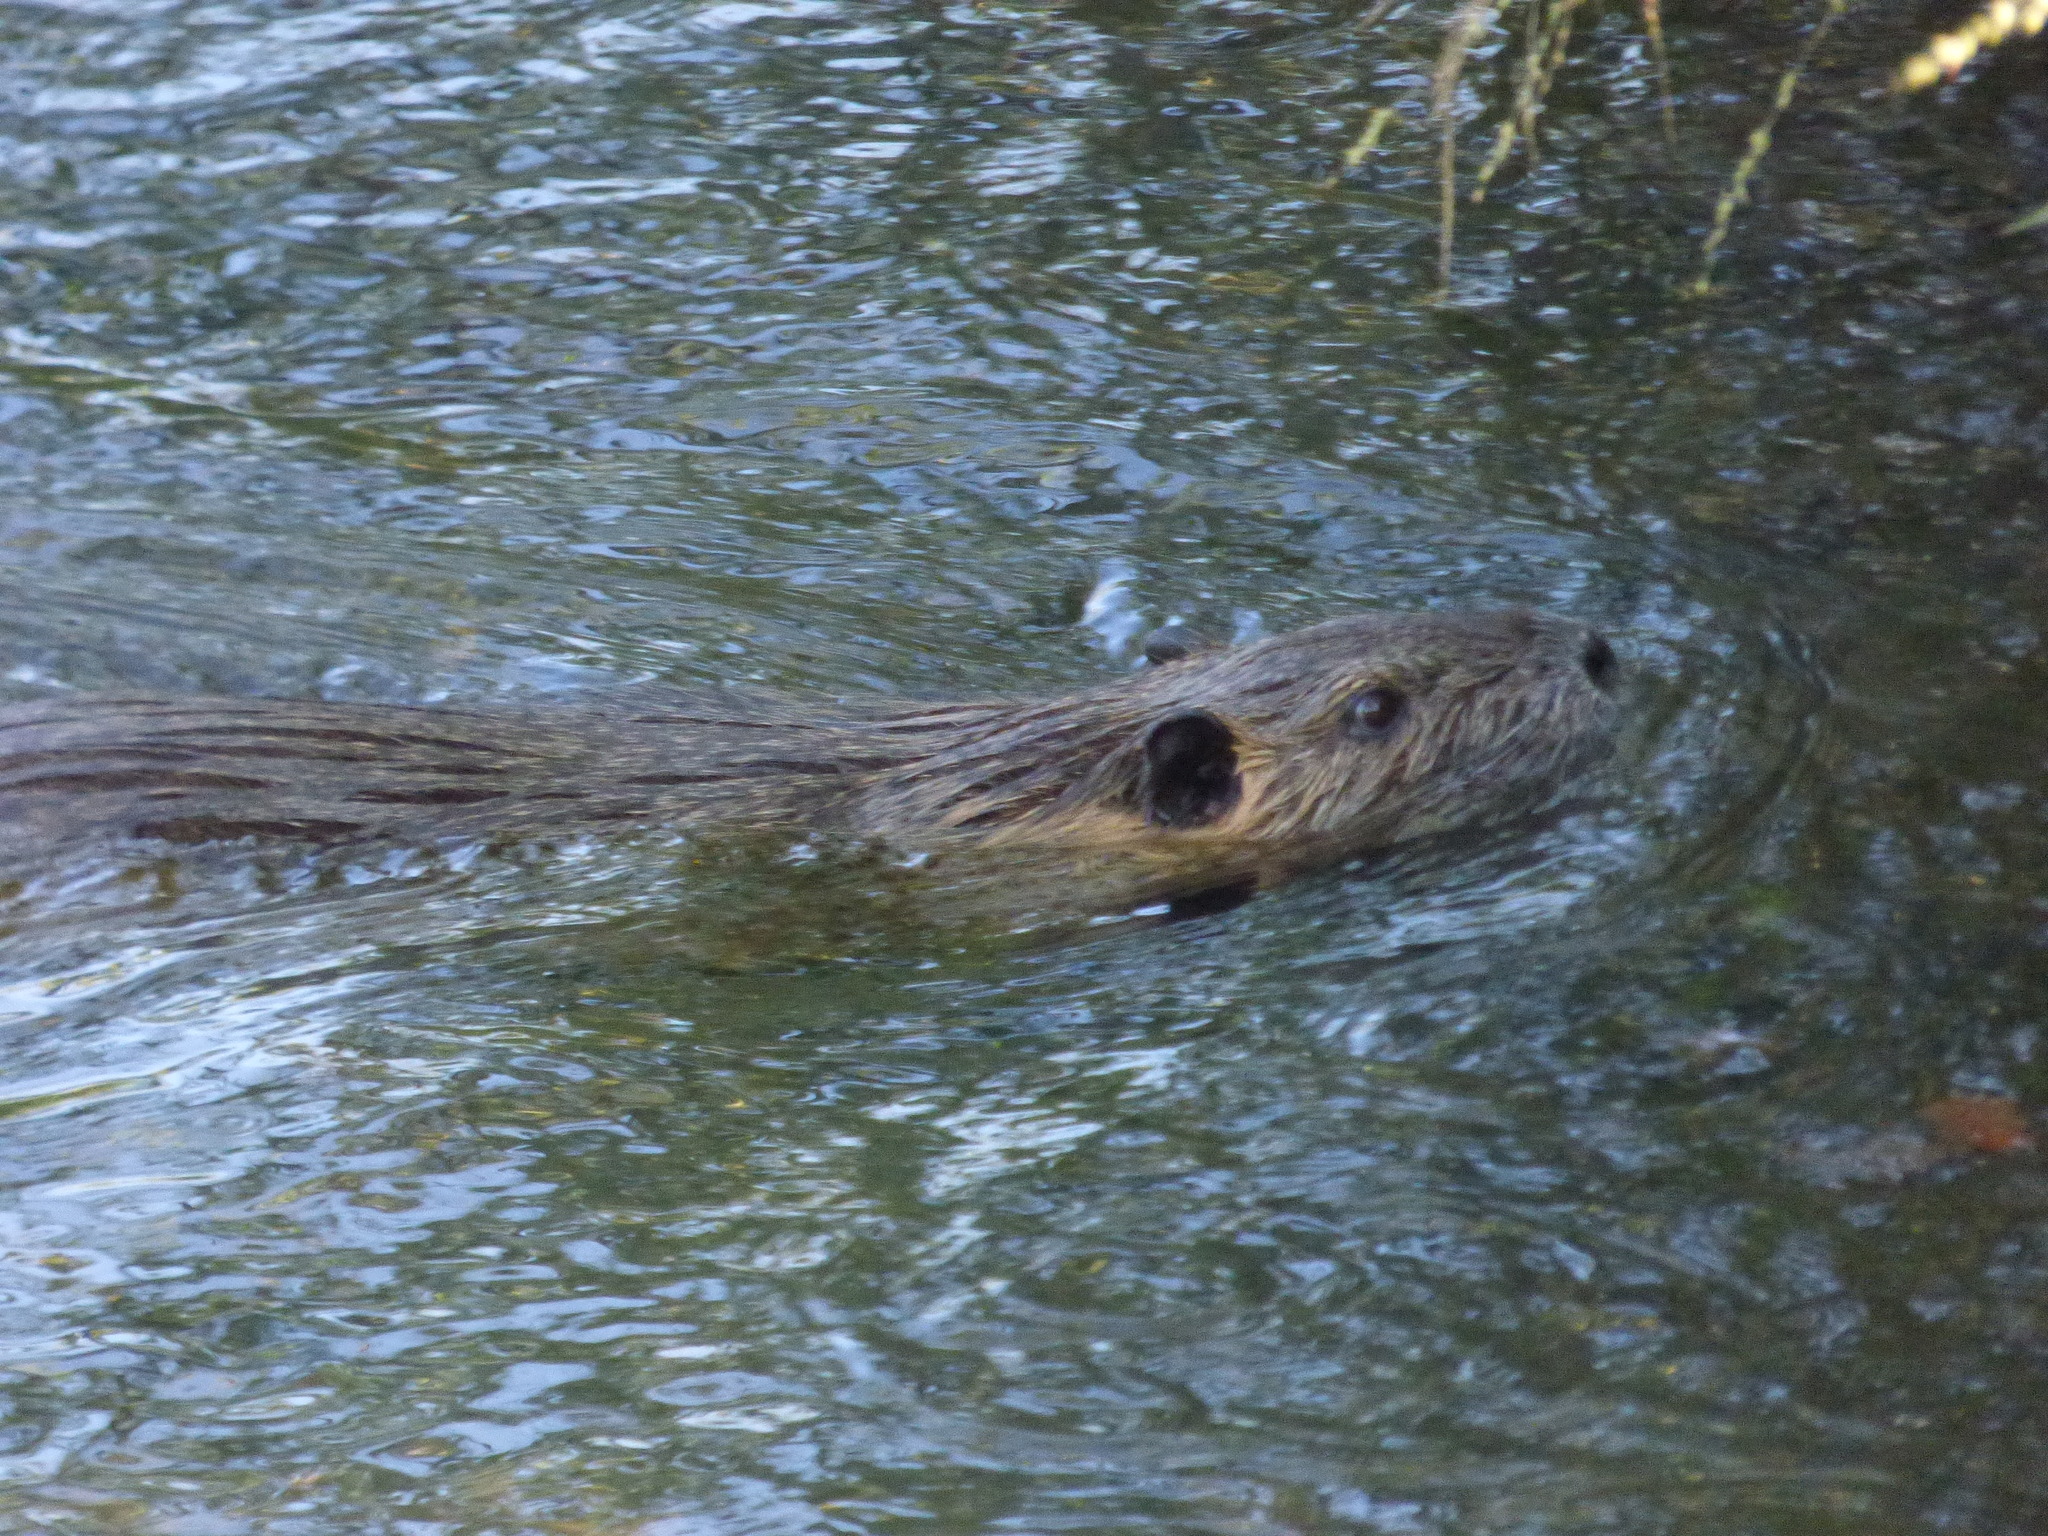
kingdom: Animalia
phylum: Chordata
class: Mammalia
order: Rodentia
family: Myocastoridae
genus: Myocastor
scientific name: Myocastor coypus
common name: Coypu
